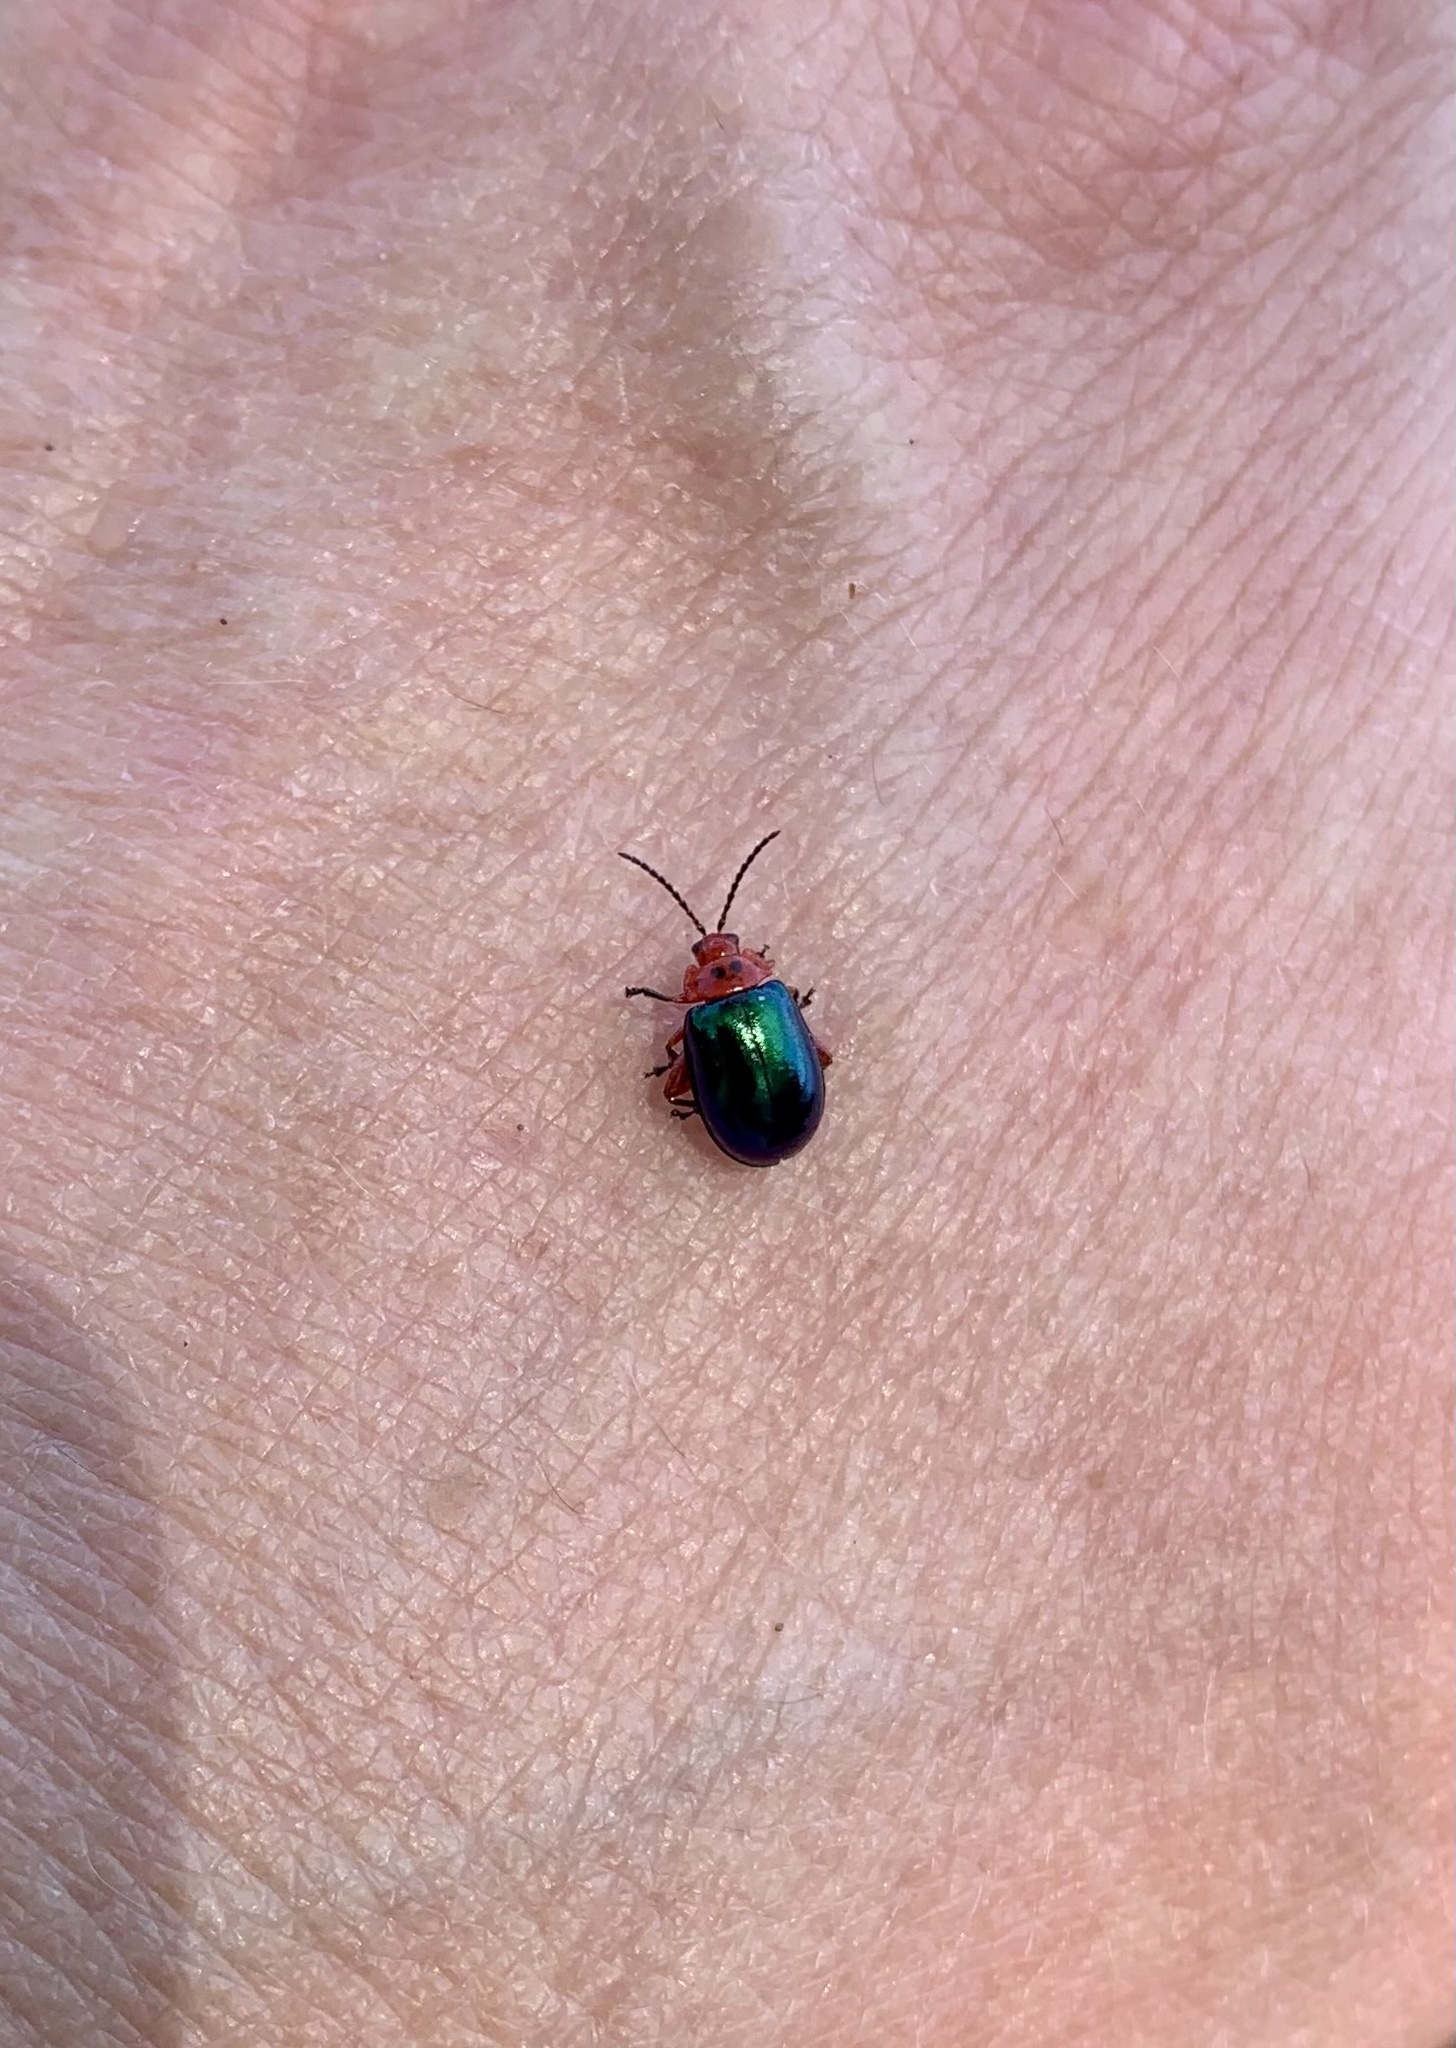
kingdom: Animalia
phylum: Arthropoda
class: Insecta
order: Coleoptera
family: Chrysomelidae
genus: Kuschelina
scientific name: Kuschelina gibbitarsa
